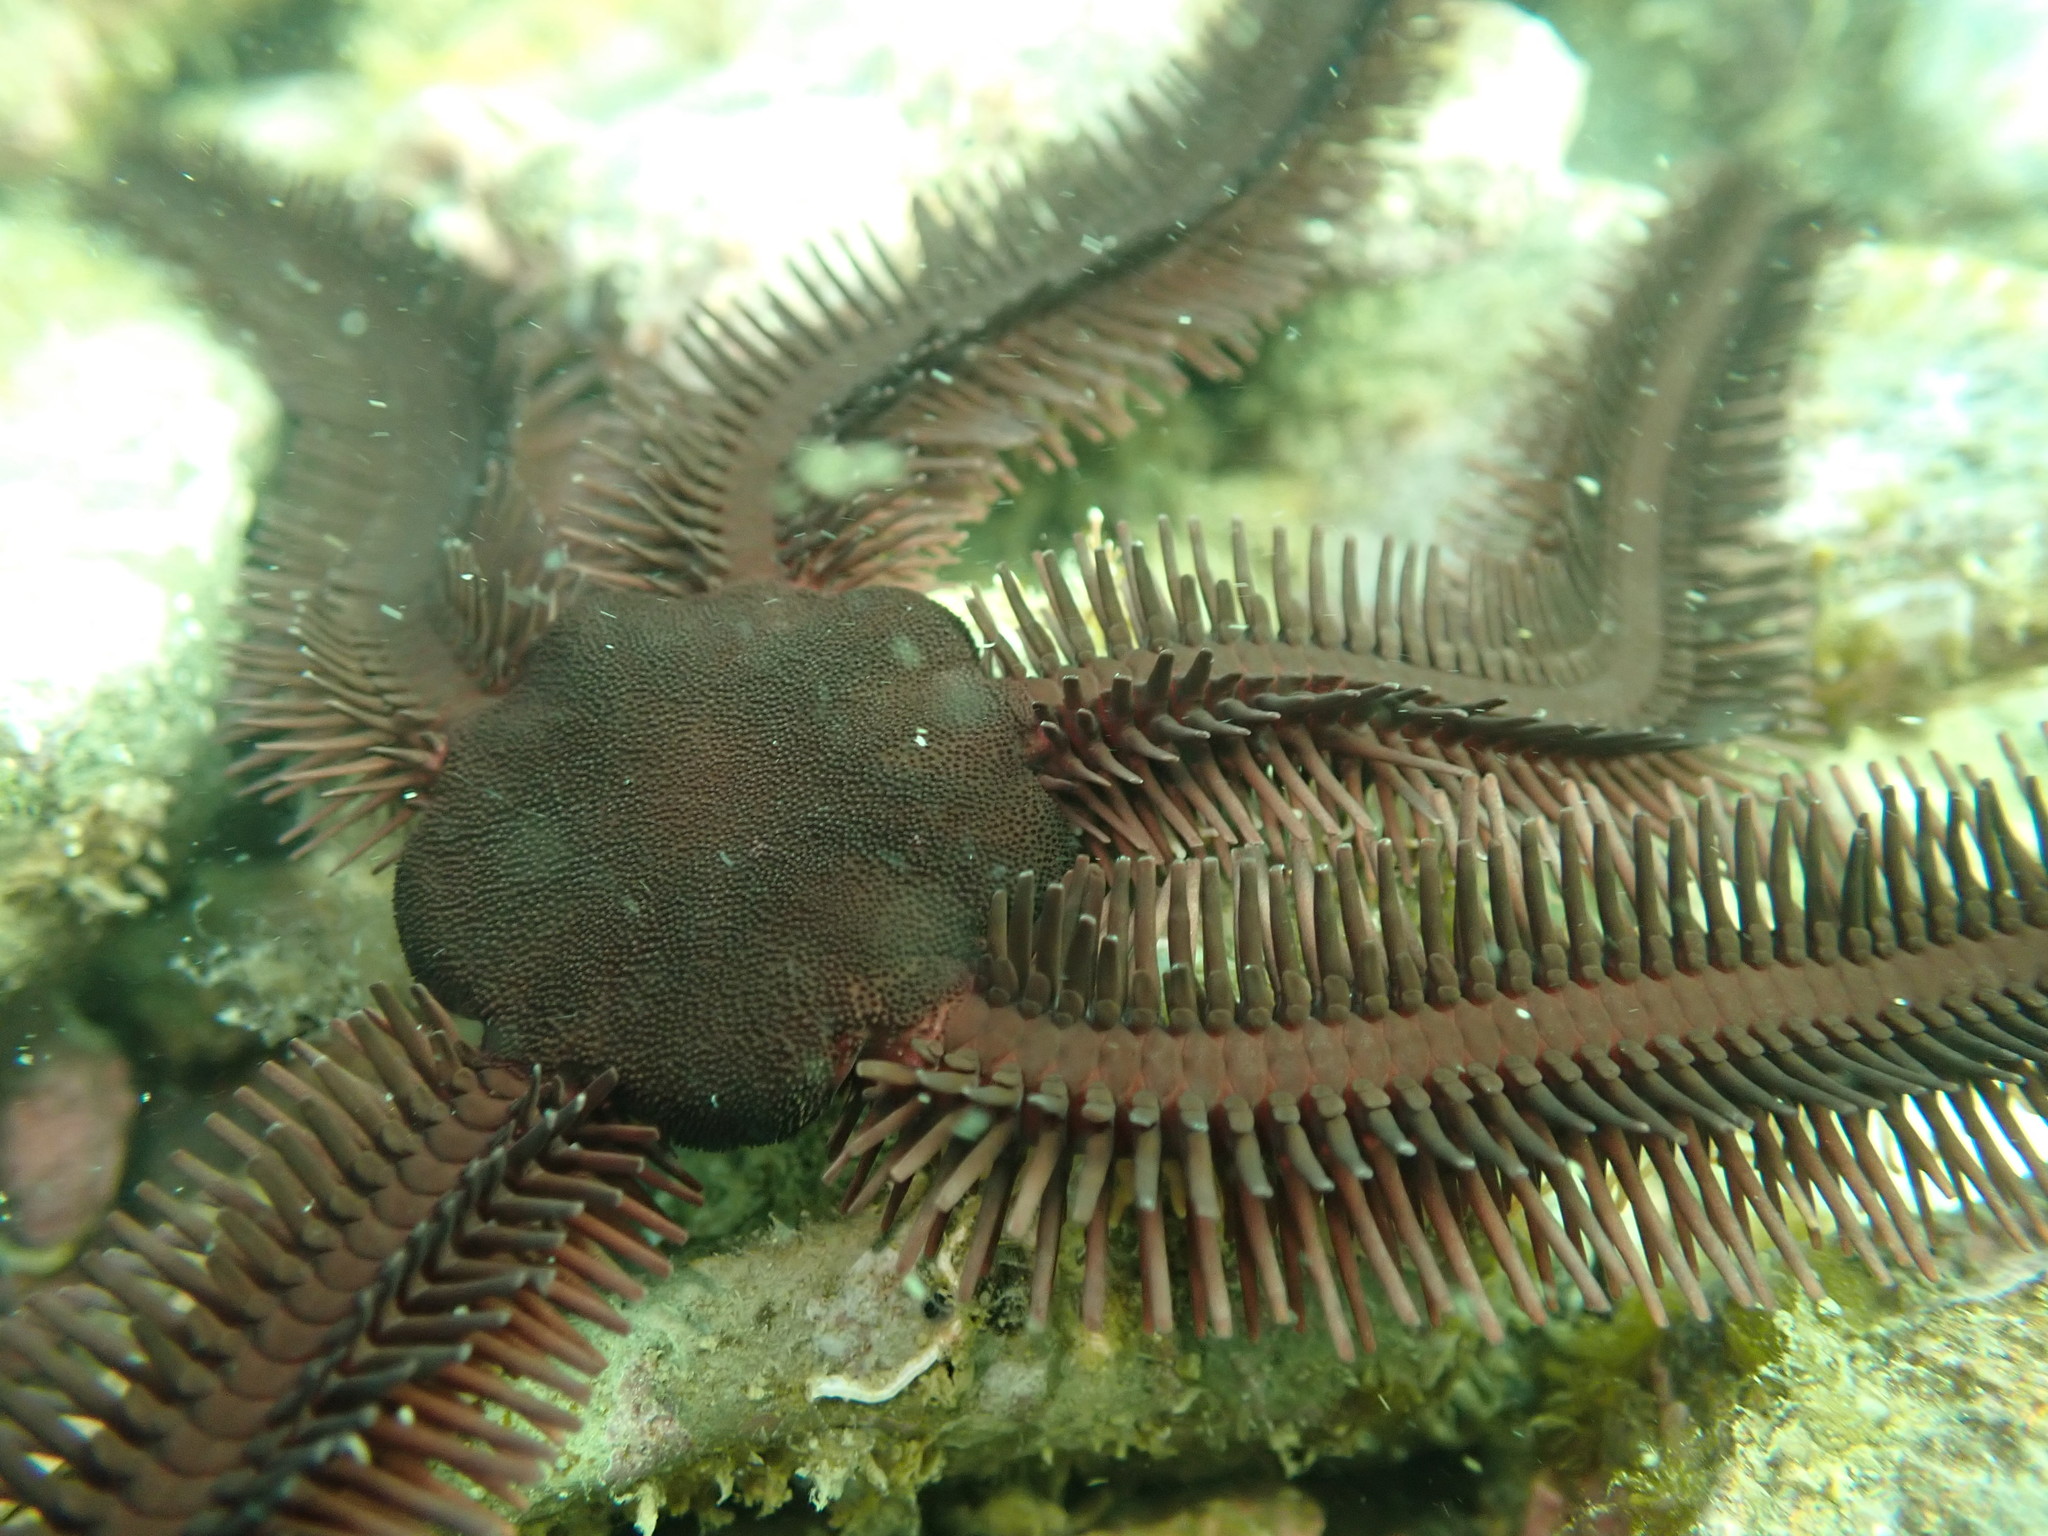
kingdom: Animalia
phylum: Echinodermata
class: Ophiuroidea
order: Ophiacanthida
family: Ophiopteridae
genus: Ophiopteris
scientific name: Ophiopteris antipodum
